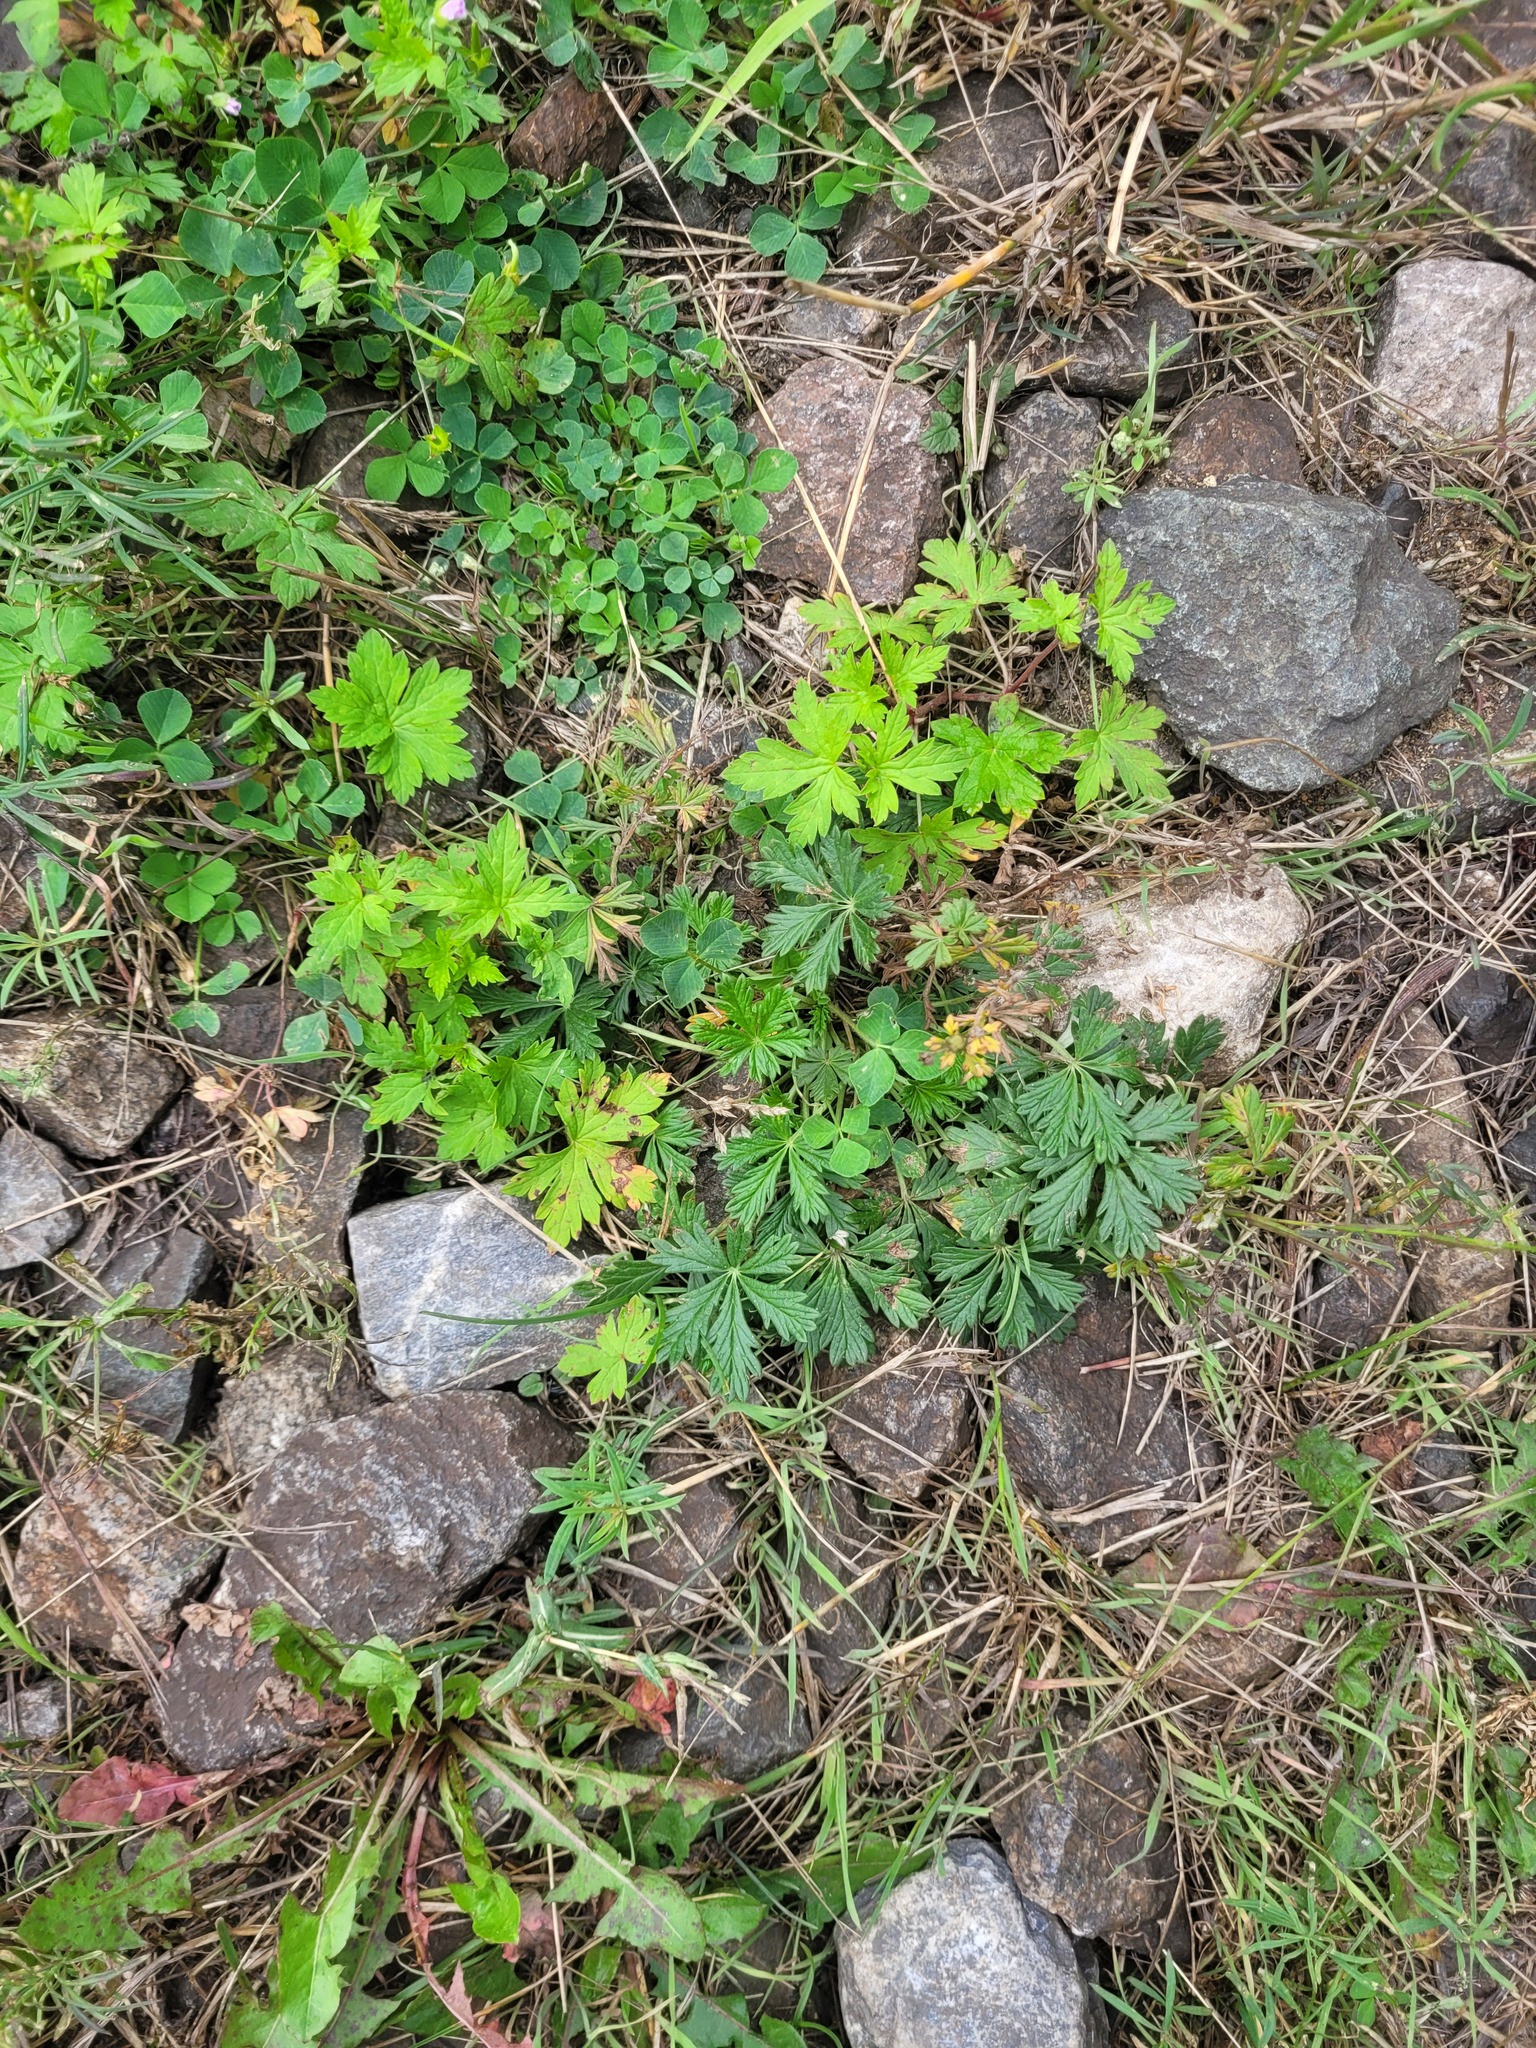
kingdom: Plantae
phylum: Tracheophyta
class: Magnoliopsida
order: Rosales
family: Rosaceae
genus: Potentilla
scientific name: Potentilla argentea
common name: Hoary cinquefoil
